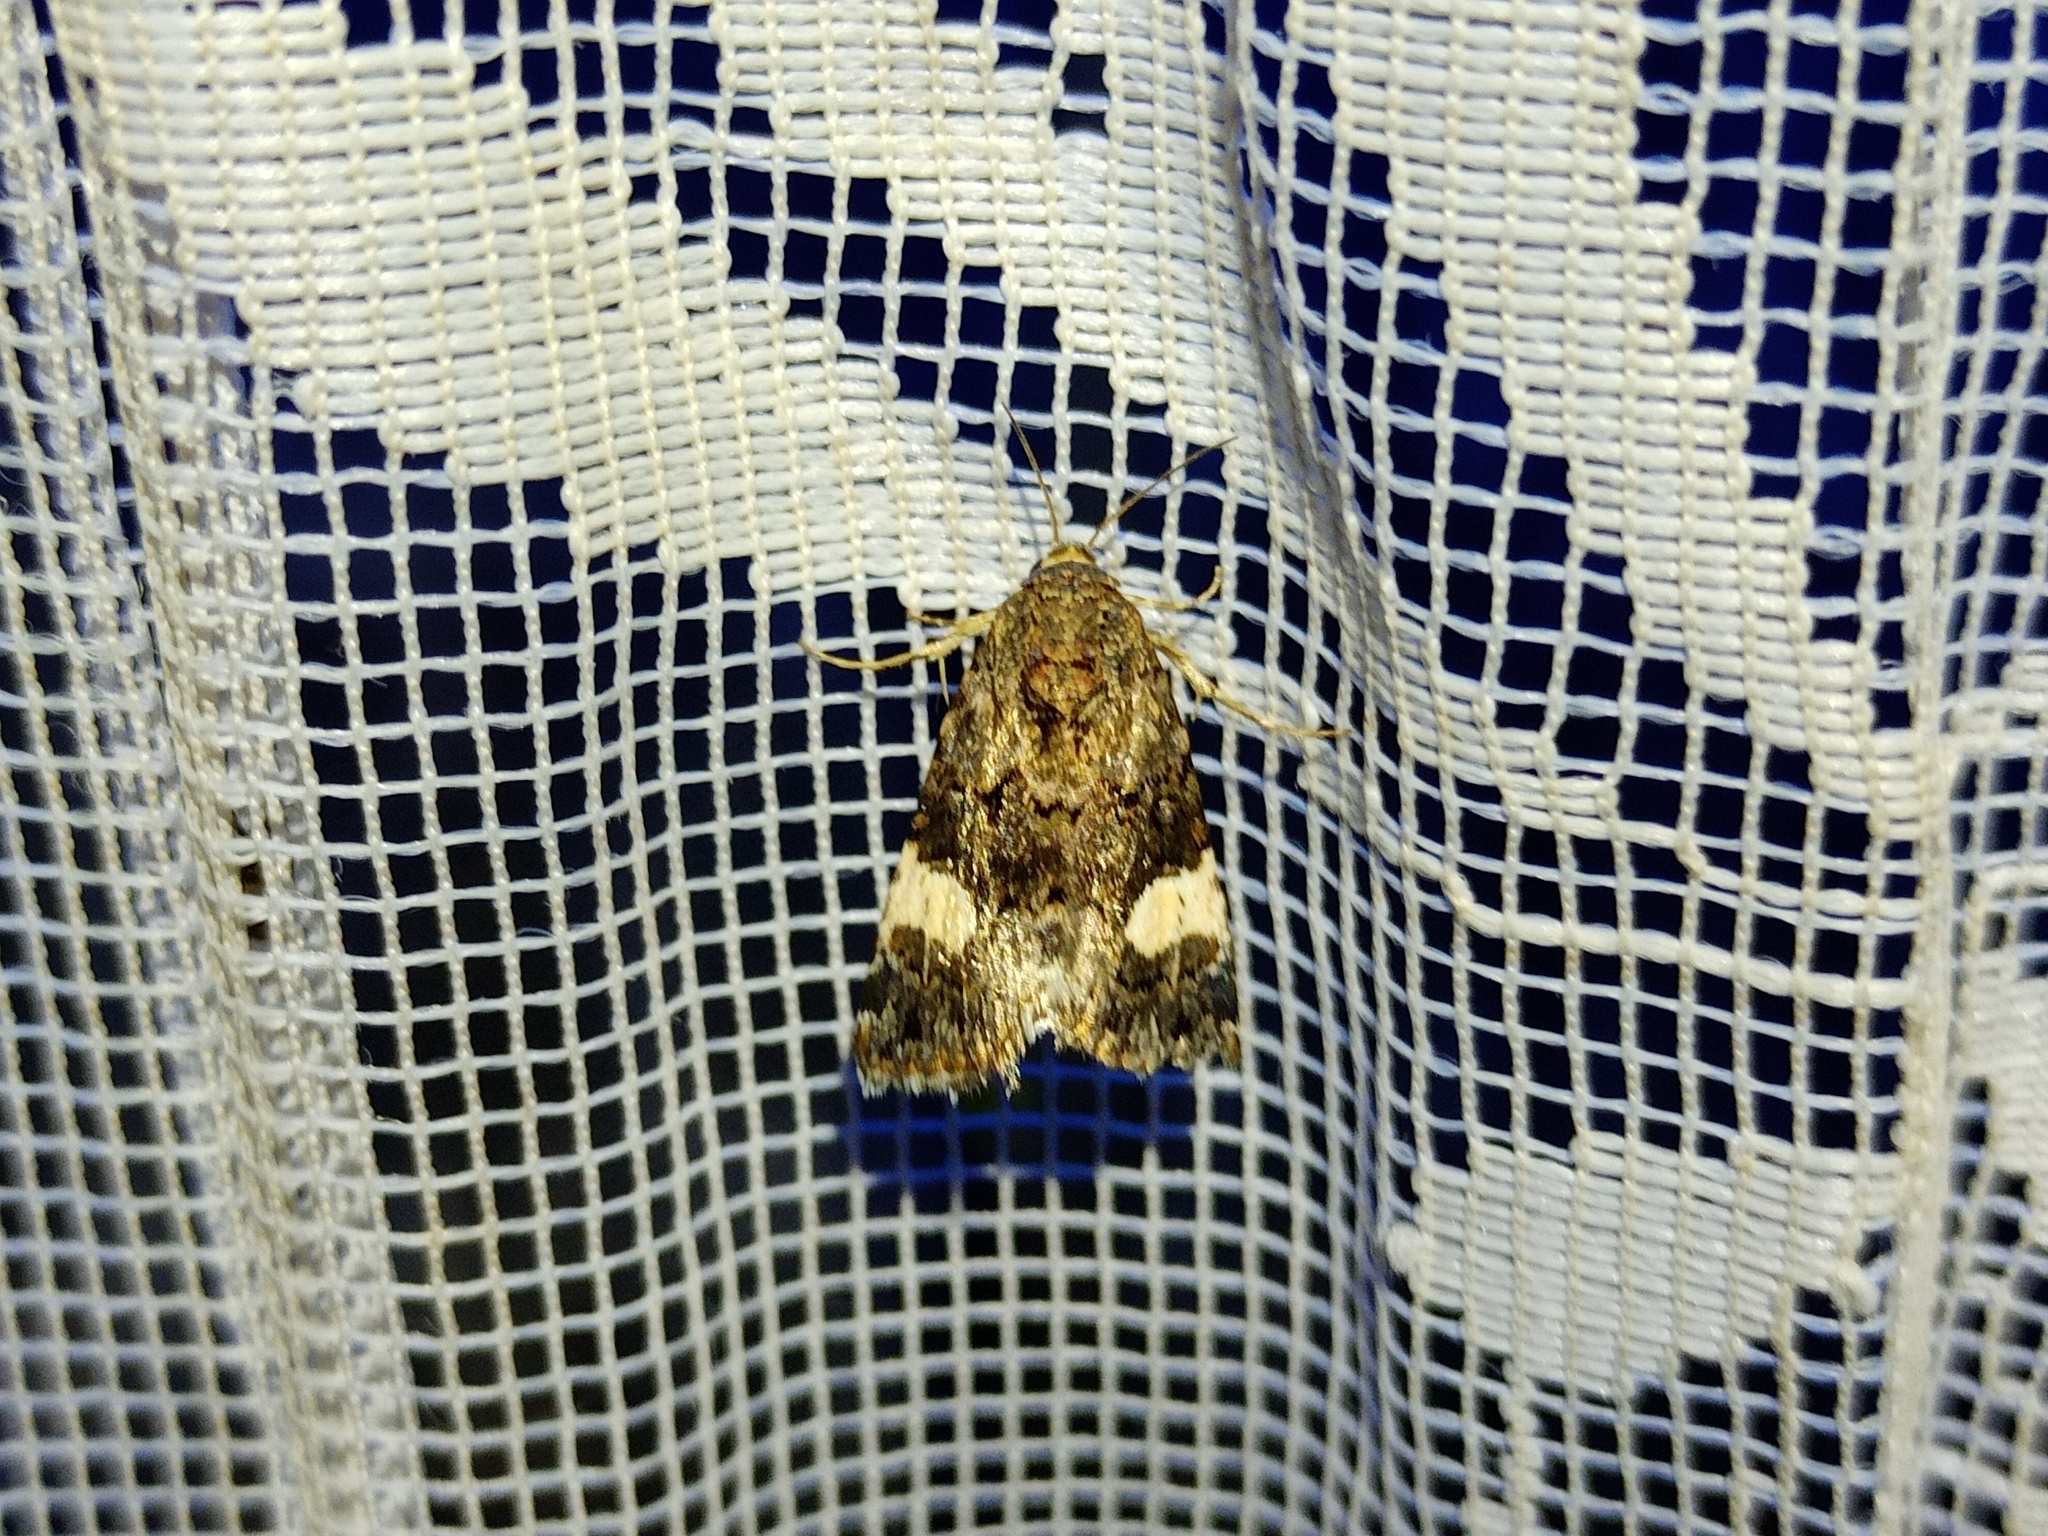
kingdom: Animalia
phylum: Arthropoda
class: Insecta
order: Lepidoptera
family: Erebidae
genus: Tyta
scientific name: Tyta luctuosa
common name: Four-spotted
